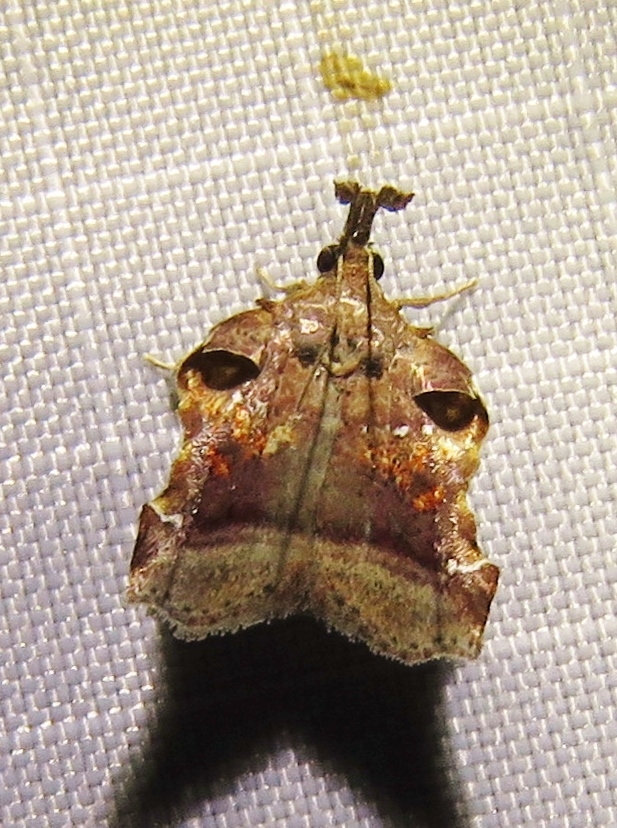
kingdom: Animalia
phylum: Arthropoda
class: Insecta
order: Lepidoptera
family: Pyralidae
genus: Clydonopteron
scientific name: Clydonopteron sacculana
